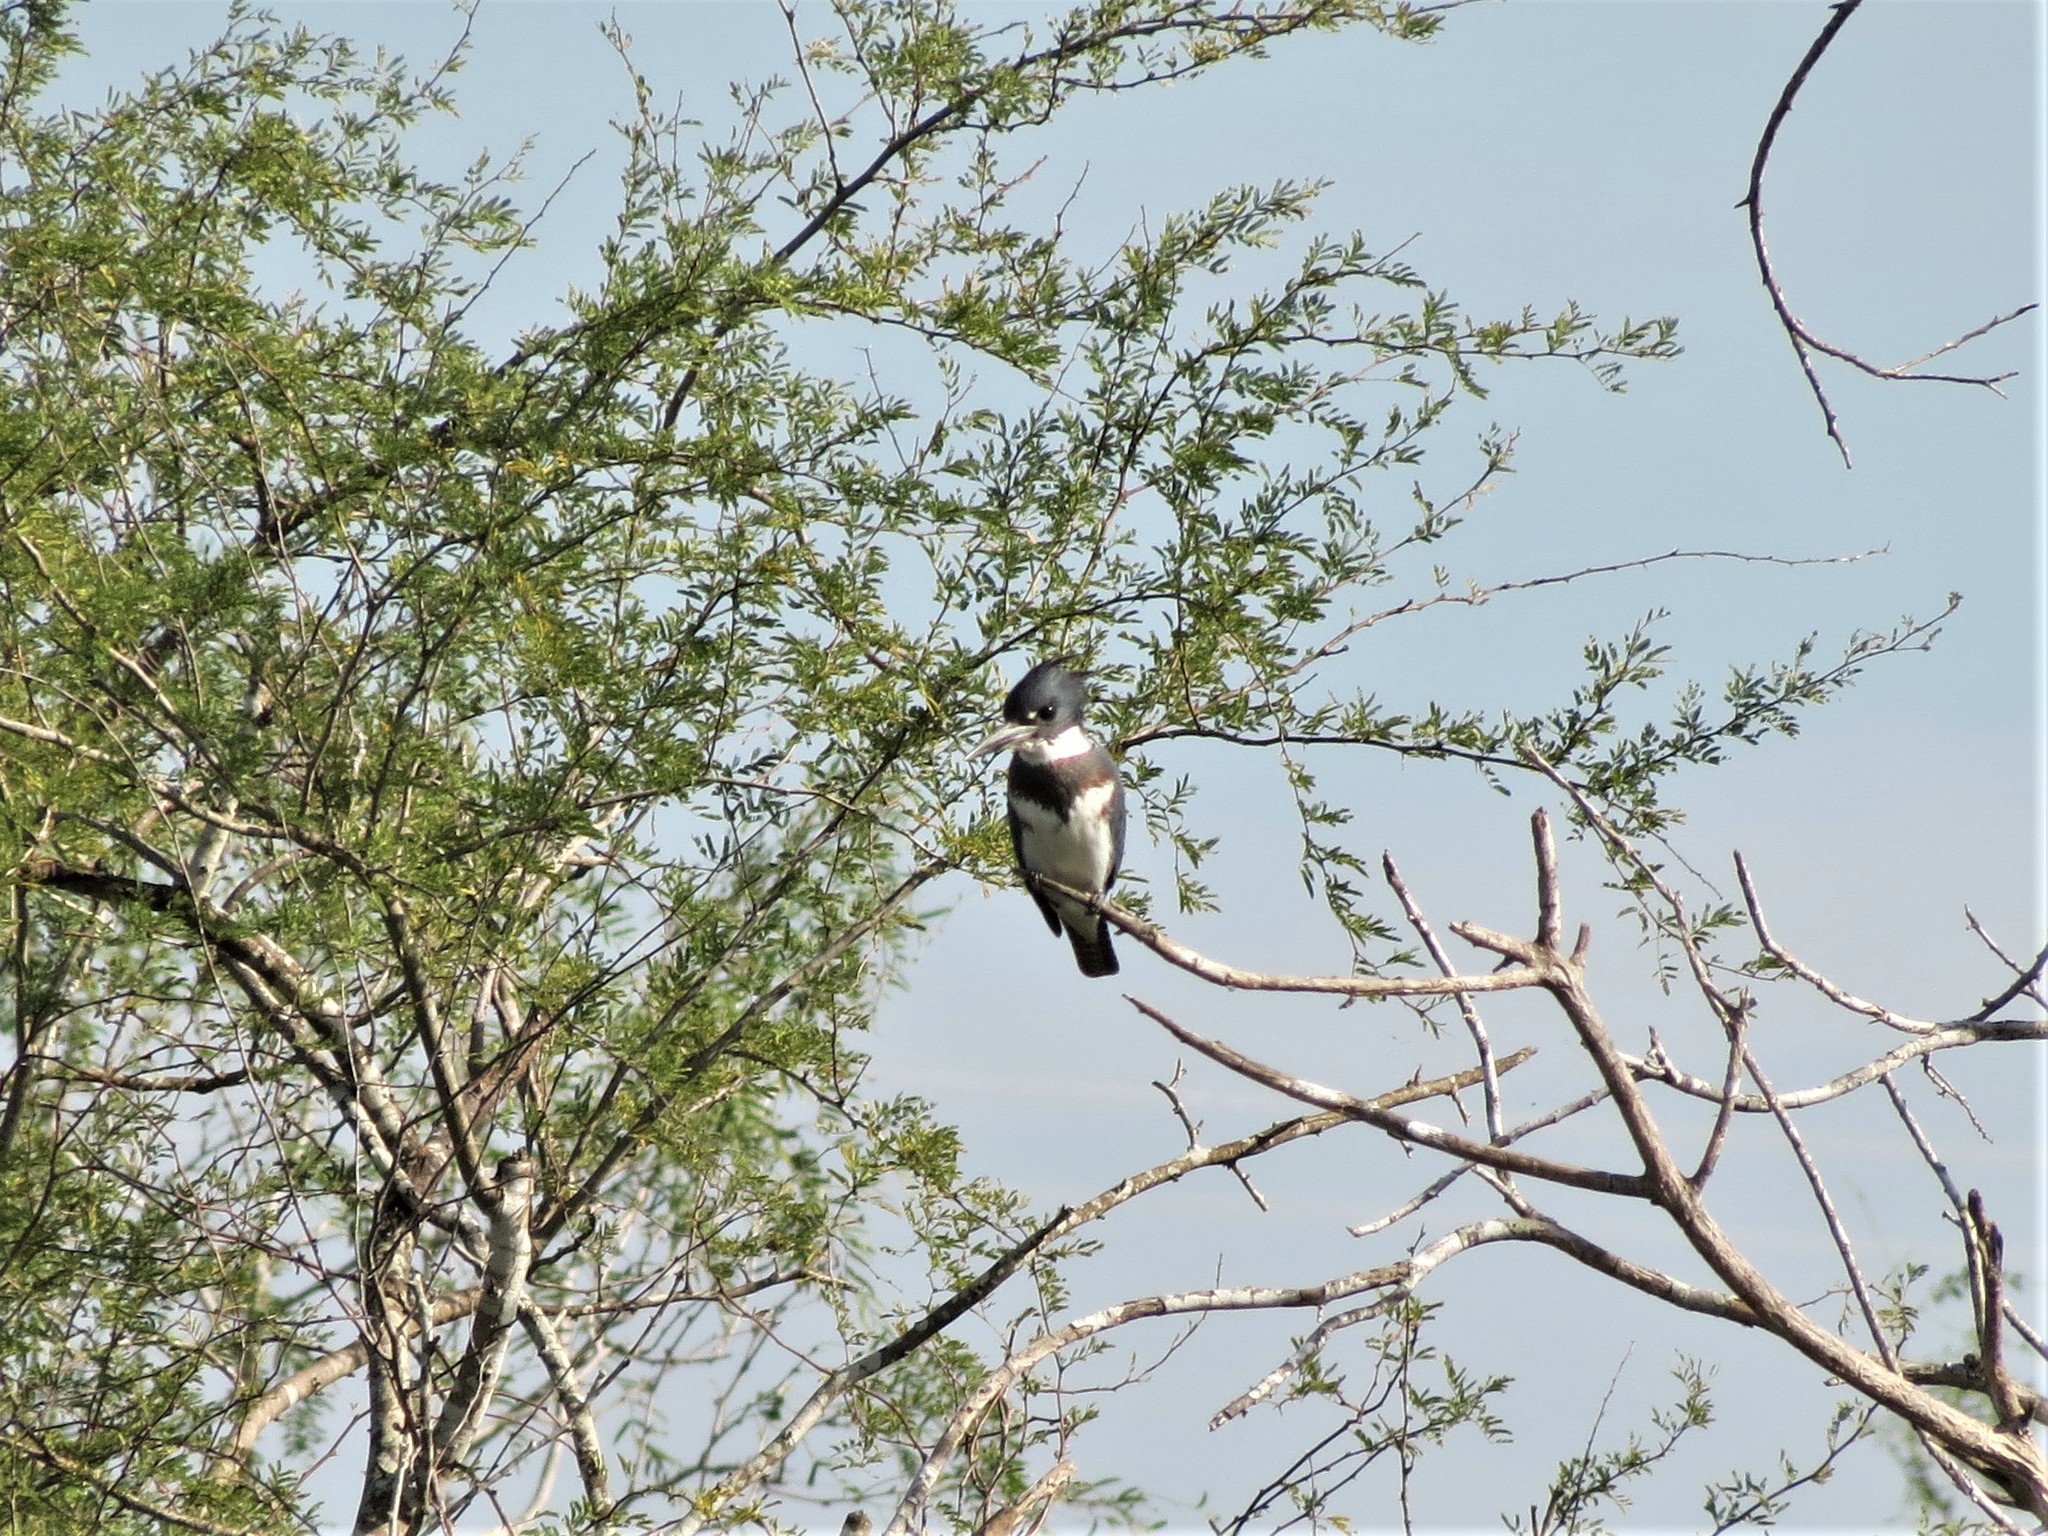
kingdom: Animalia
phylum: Chordata
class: Aves
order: Coraciiformes
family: Alcedinidae
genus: Megaceryle
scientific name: Megaceryle alcyon
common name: Belted kingfisher
